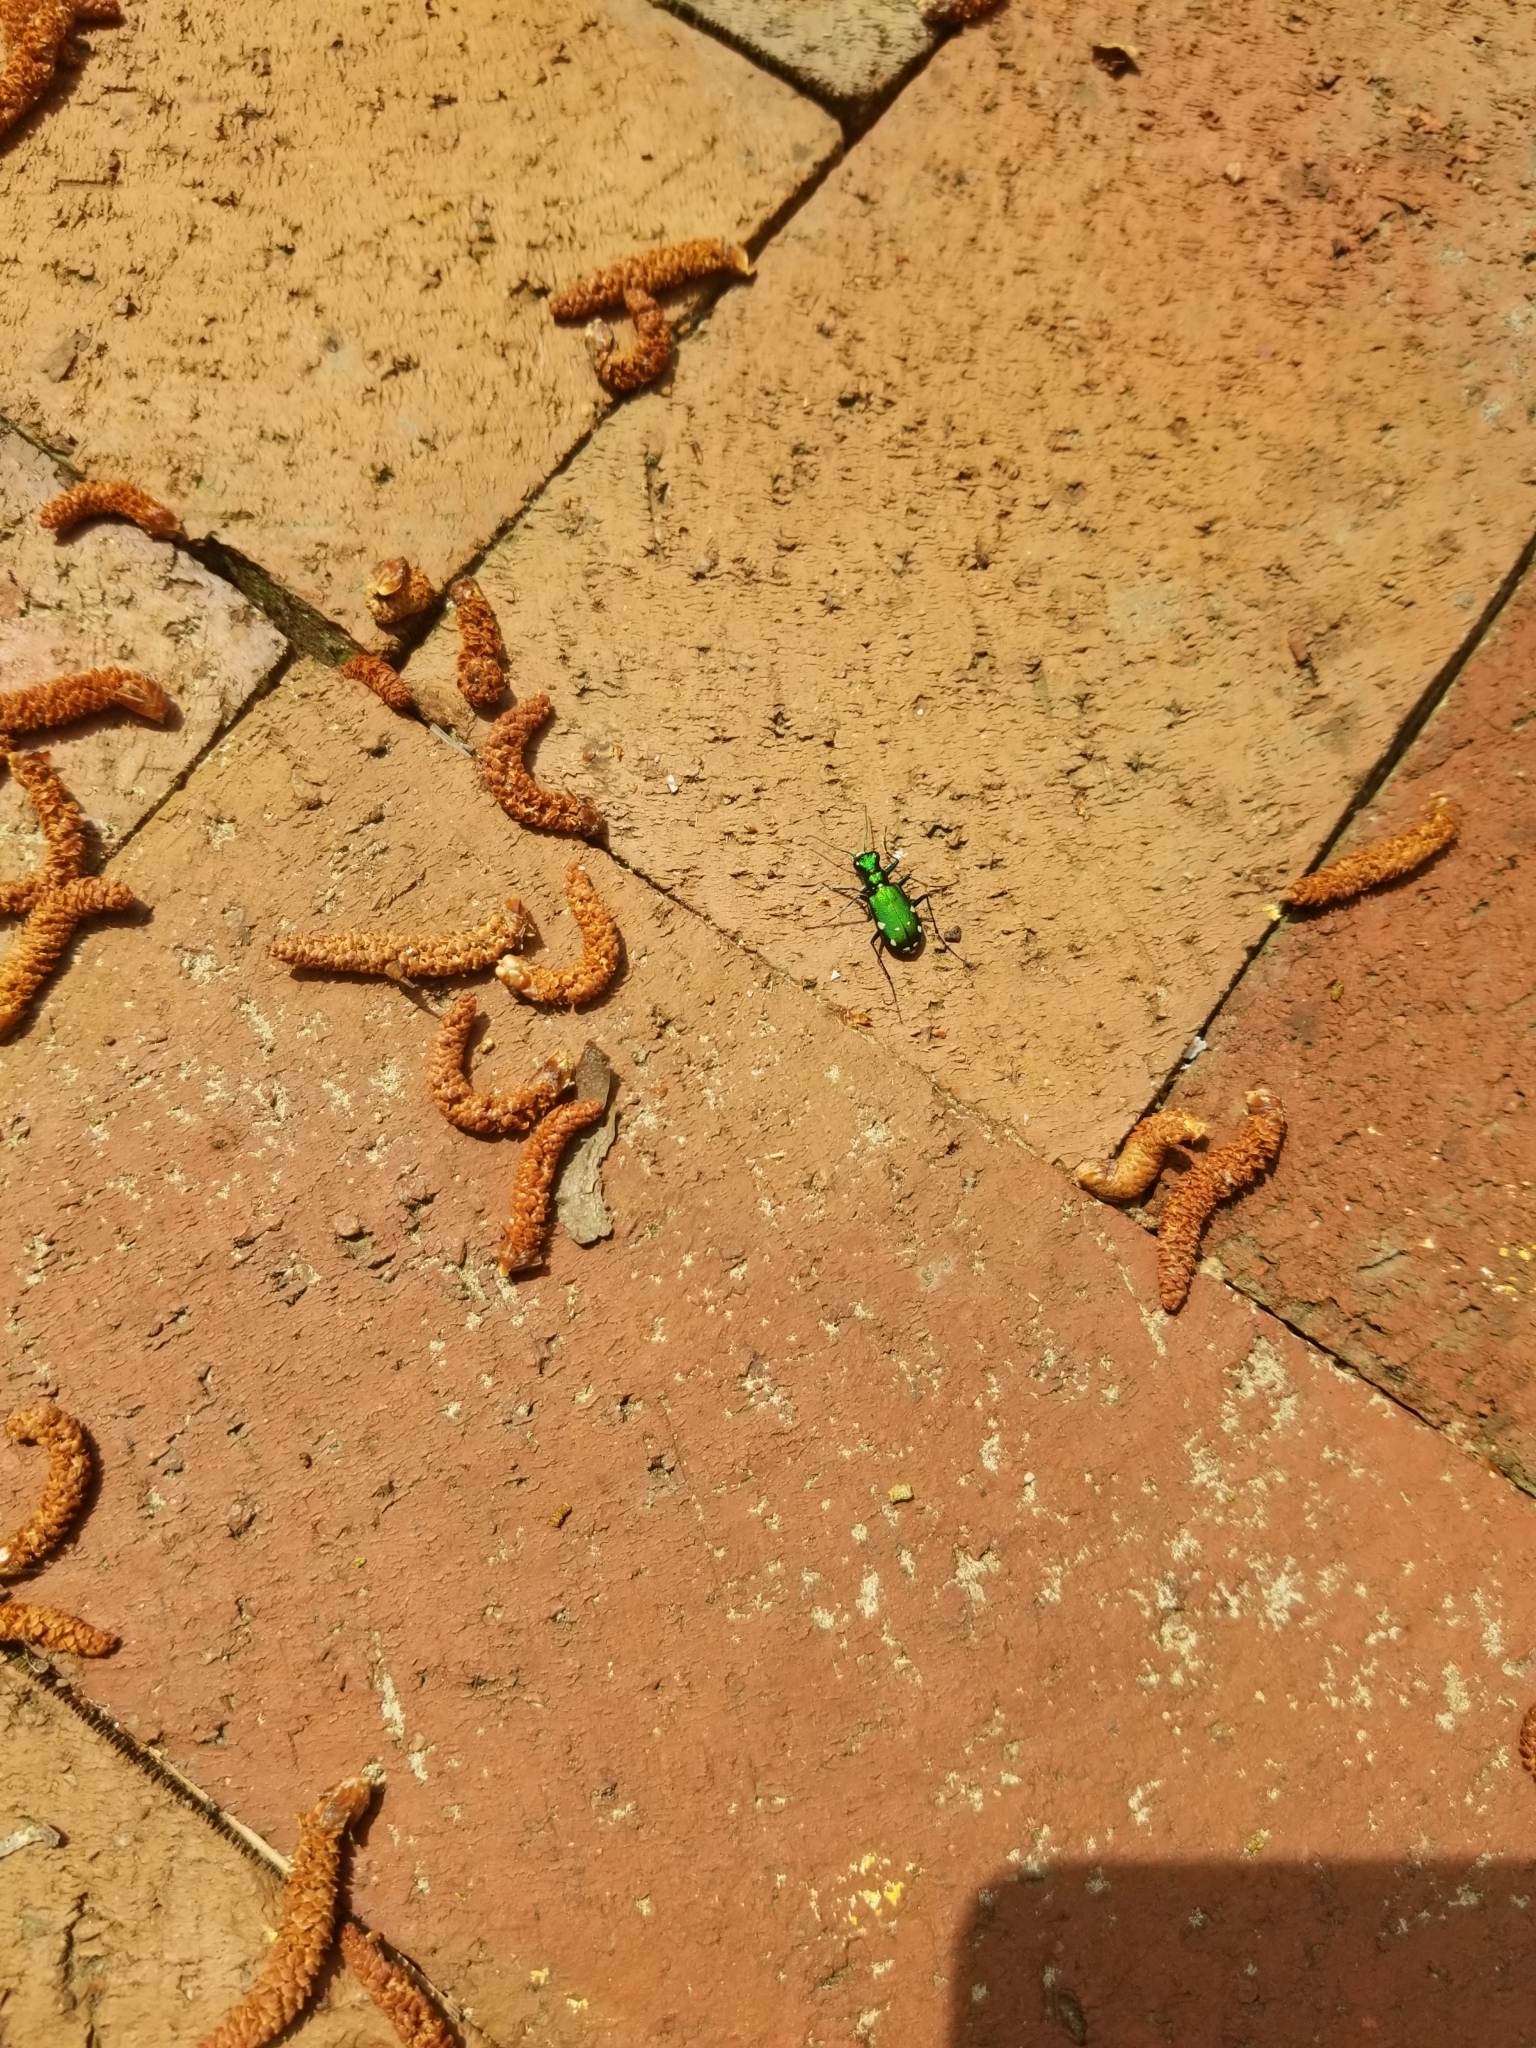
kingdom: Animalia
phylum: Arthropoda
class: Insecta
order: Coleoptera
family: Carabidae
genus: Cicindela
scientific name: Cicindela sexguttata
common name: Six-spotted tiger beetle
